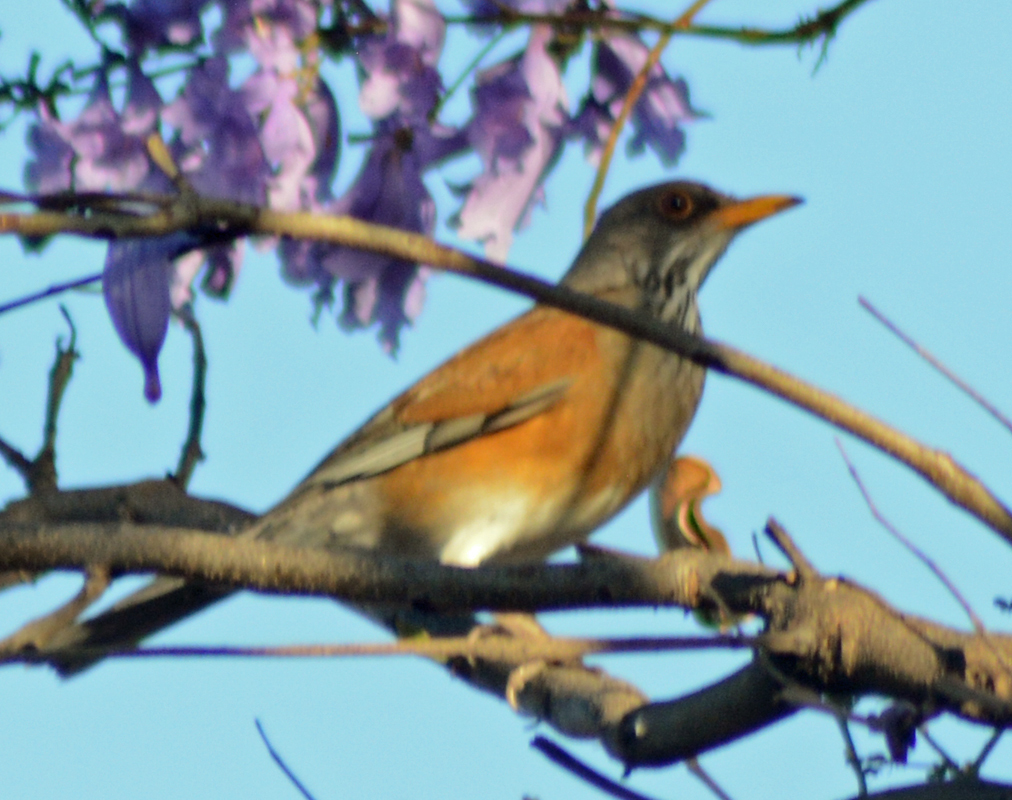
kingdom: Animalia
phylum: Chordata
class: Aves
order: Passeriformes
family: Turdidae
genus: Turdus
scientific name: Turdus rufopalliatus
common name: Rufous-backed robin
